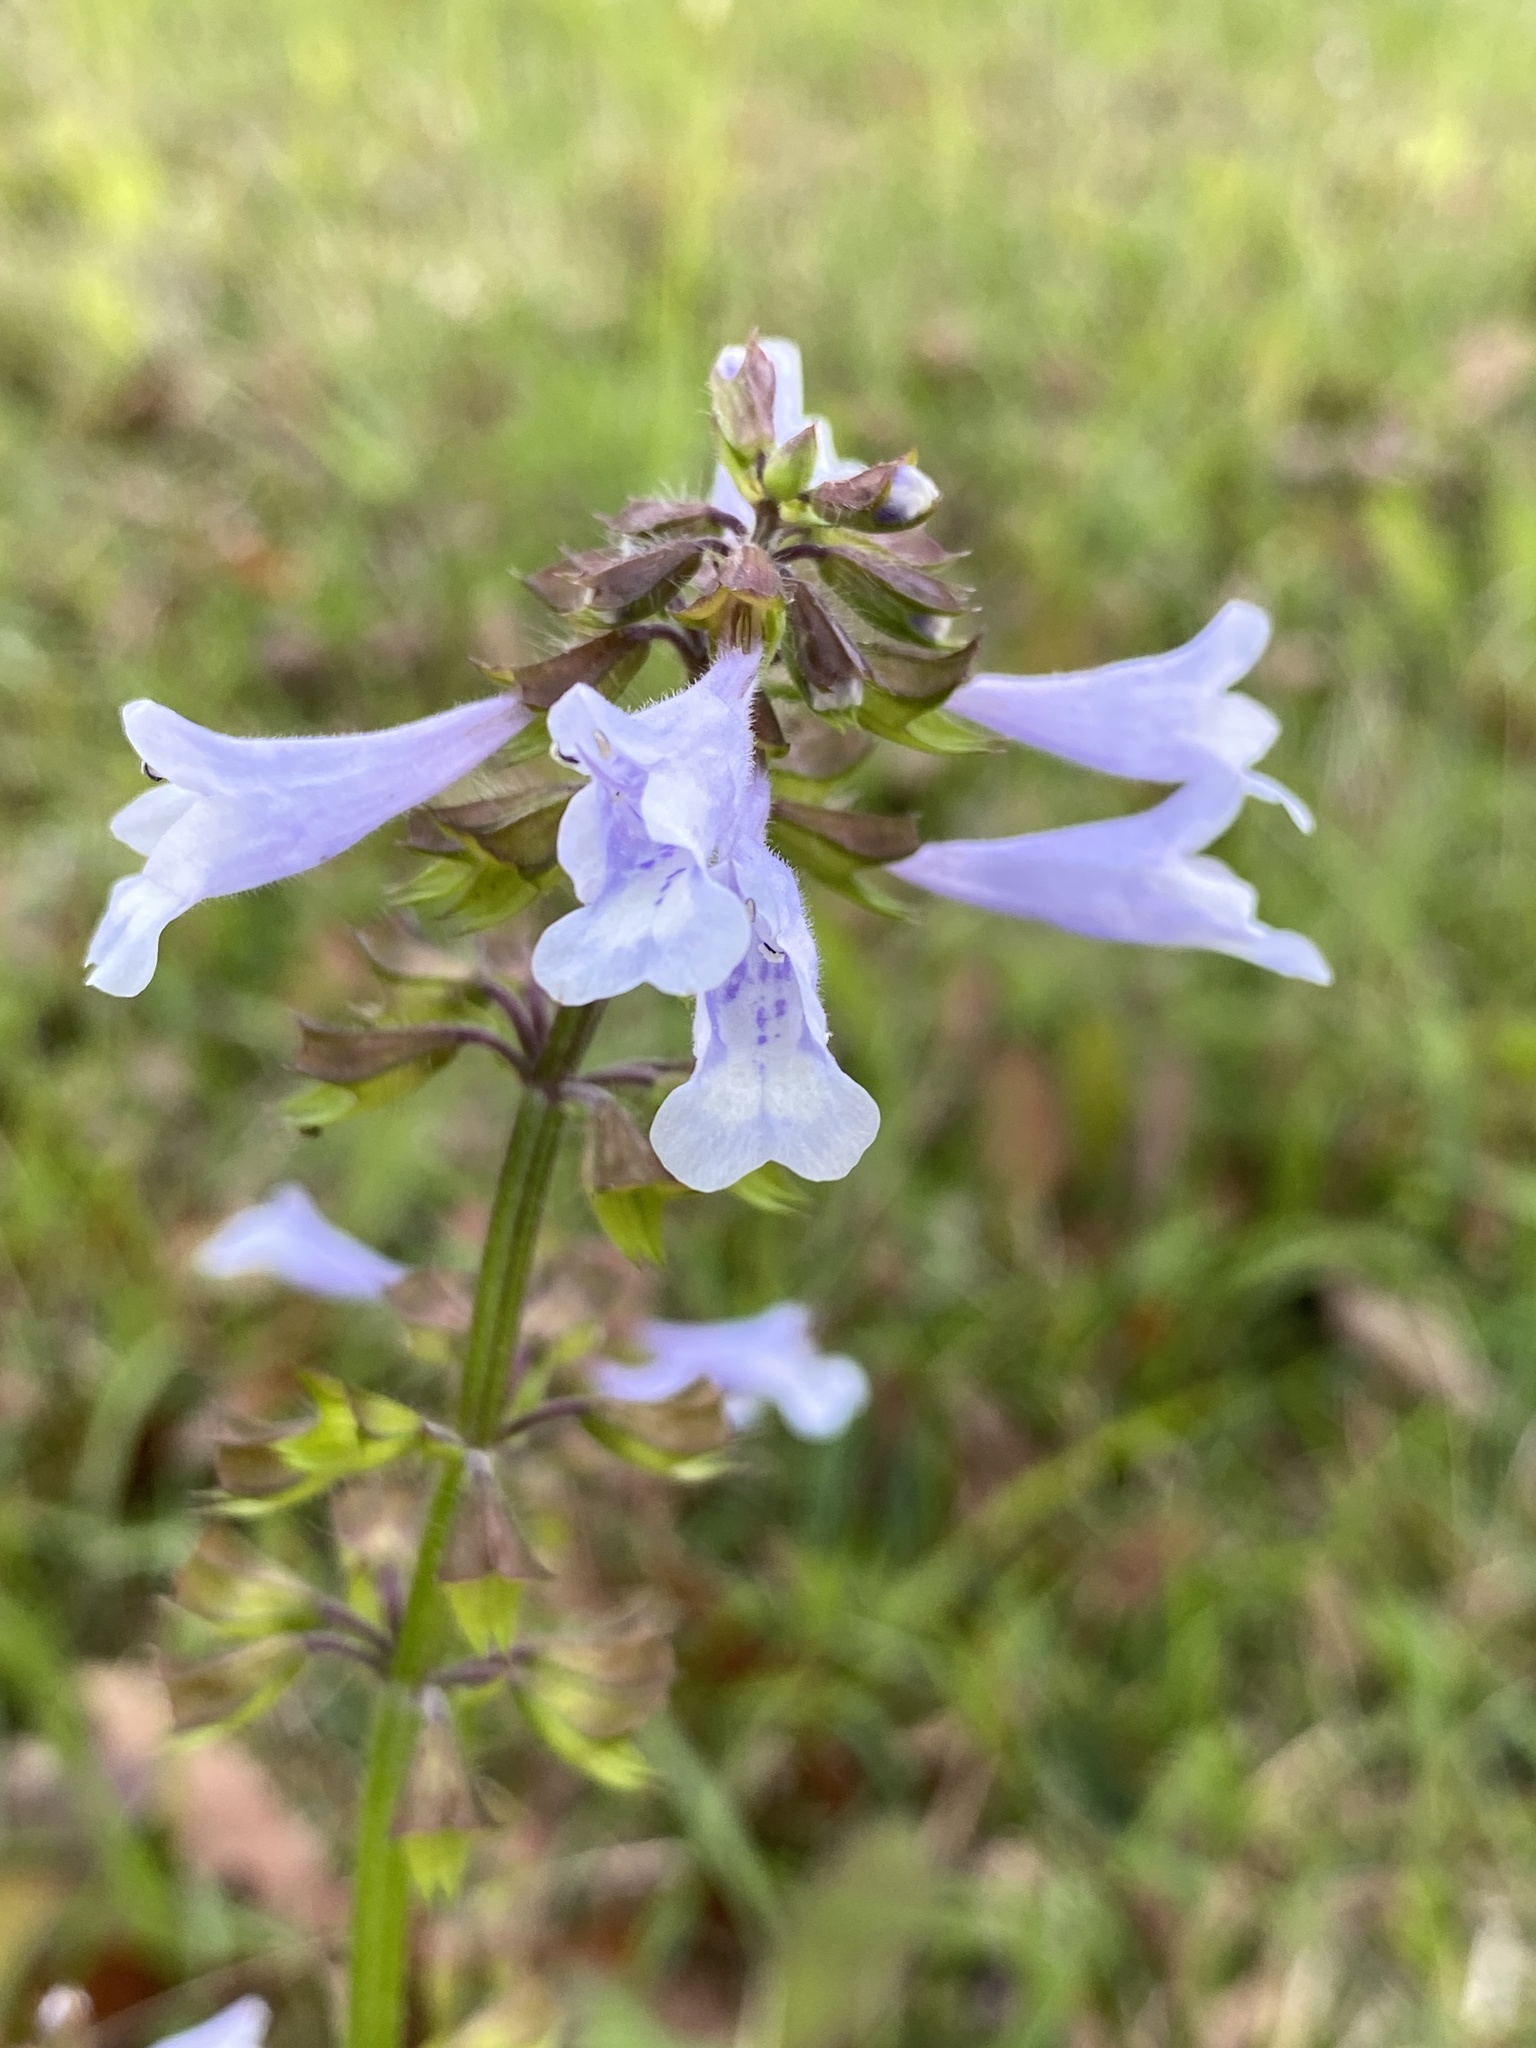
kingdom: Plantae
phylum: Tracheophyta
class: Magnoliopsida
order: Lamiales
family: Lamiaceae
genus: Salvia
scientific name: Salvia lyrata
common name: Cancerweed
